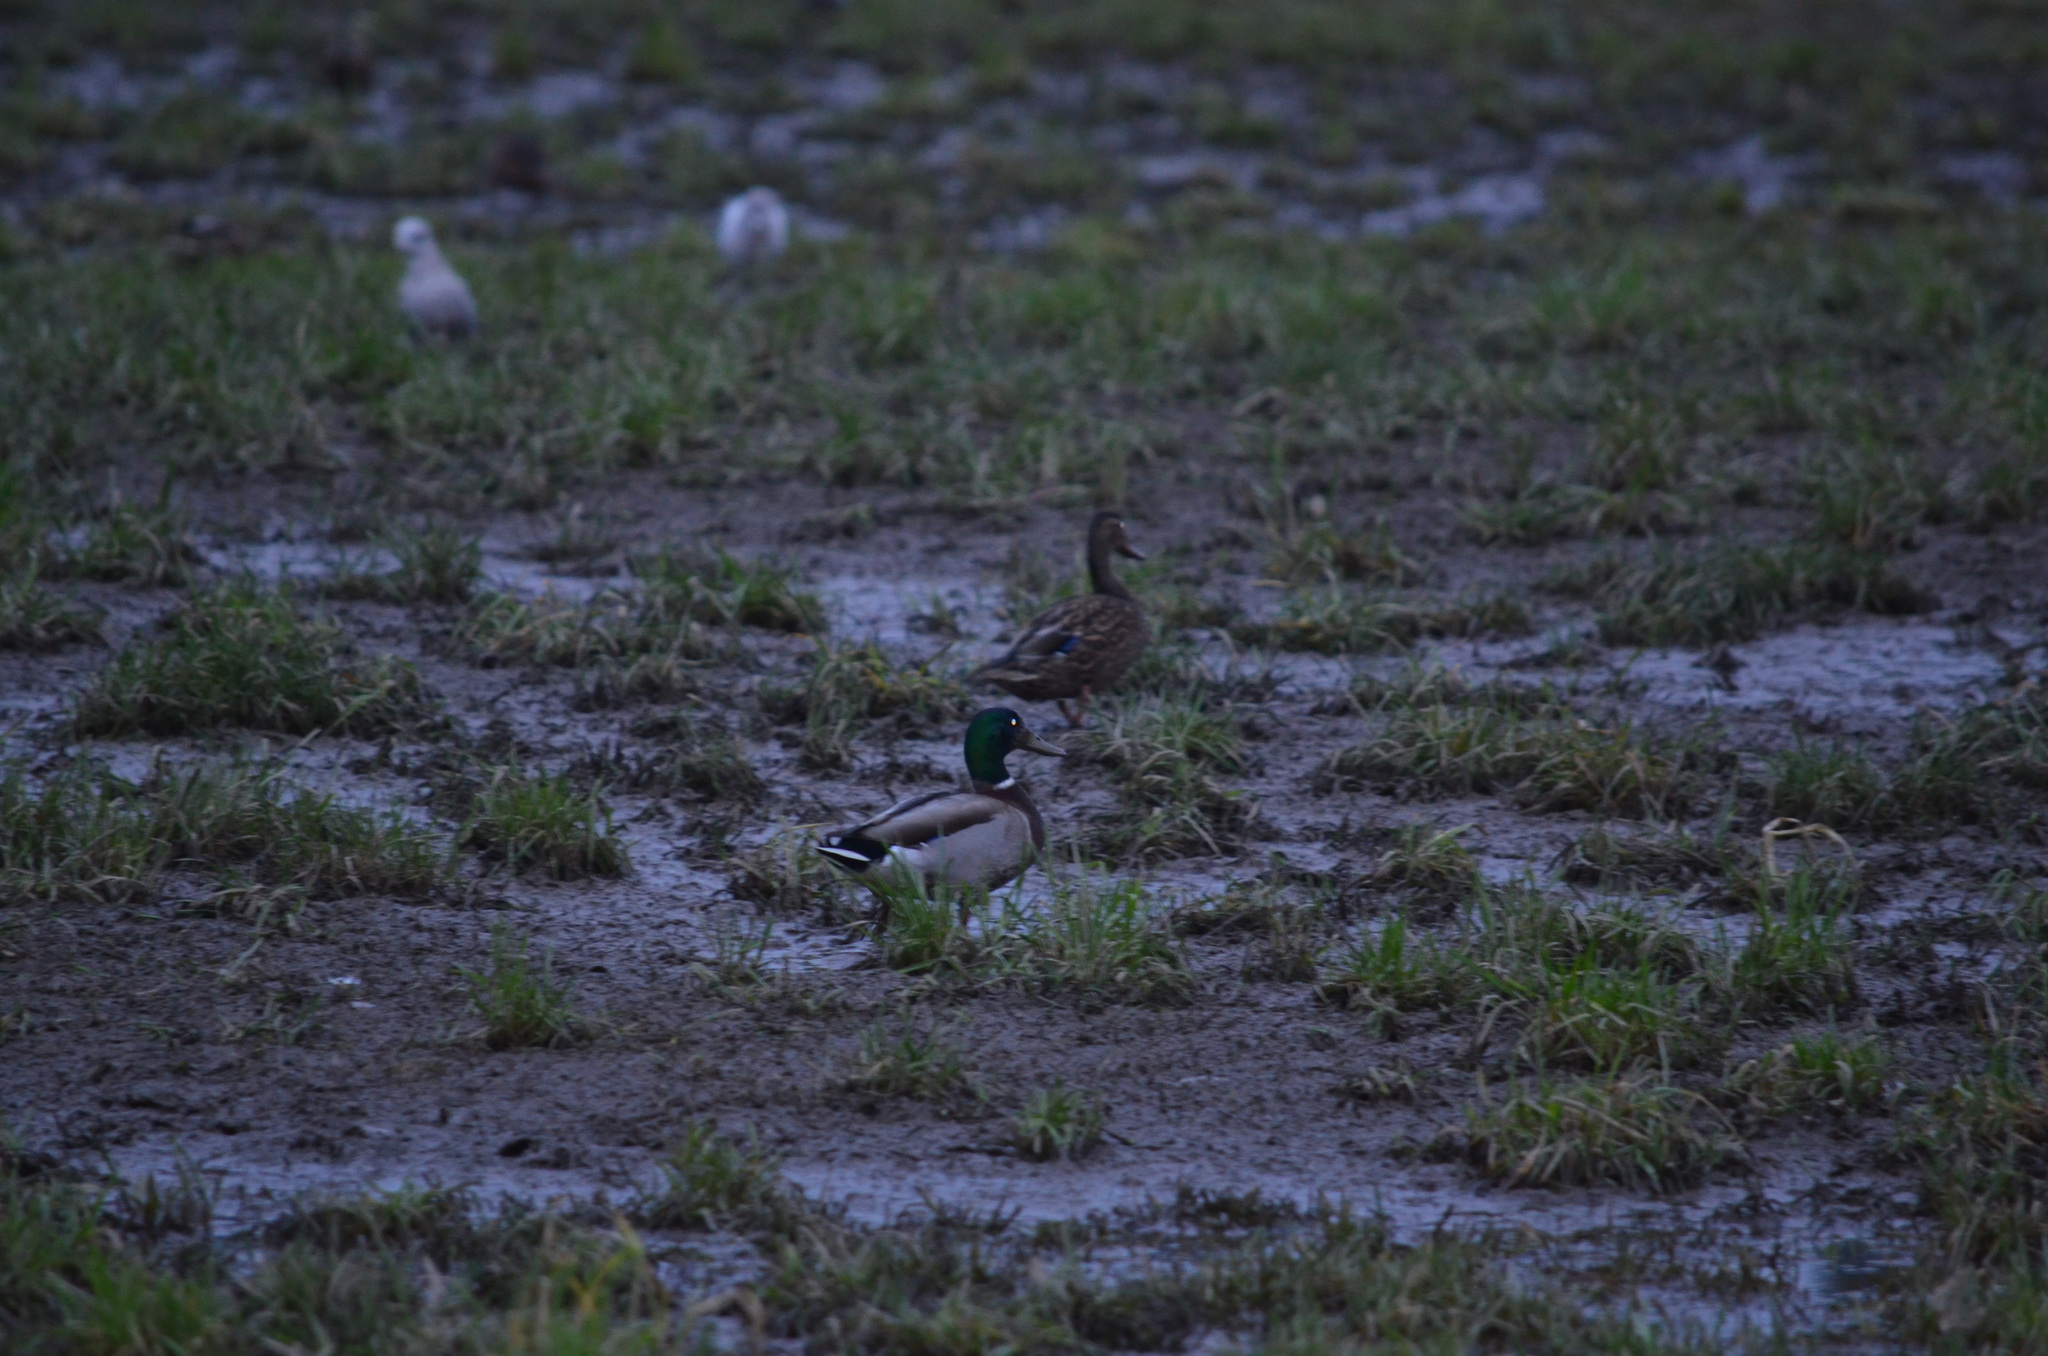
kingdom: Animalia
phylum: Chordata
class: Aves
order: Anseriformes
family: Anatidae
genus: Anas
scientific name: Anas platyrhynchos
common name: Mallard
